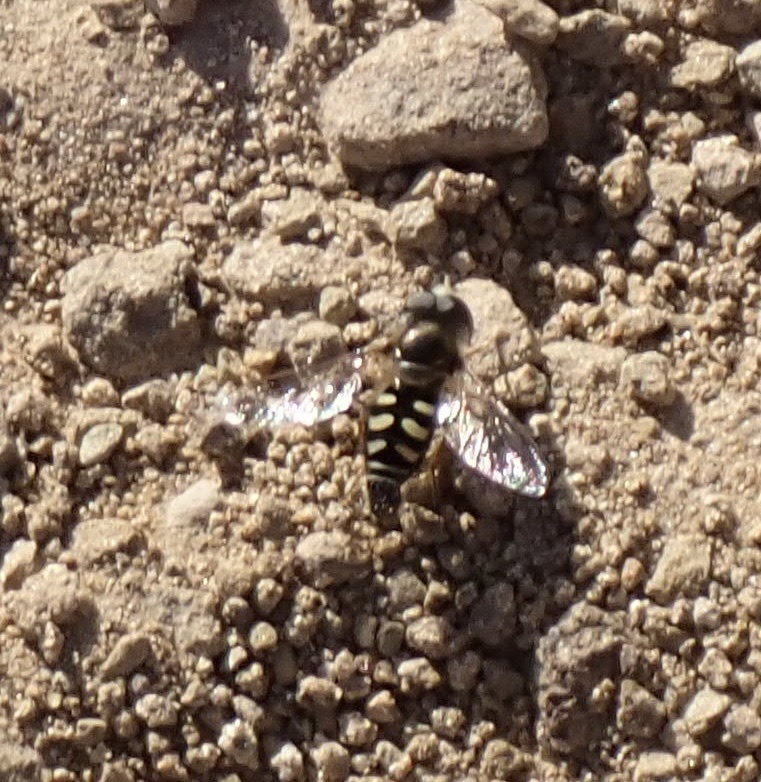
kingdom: Animalia
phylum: Arthropoda
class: Insecta
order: Diptera
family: Syrphidae
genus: Eupeodes
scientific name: Eupeodes volucris
